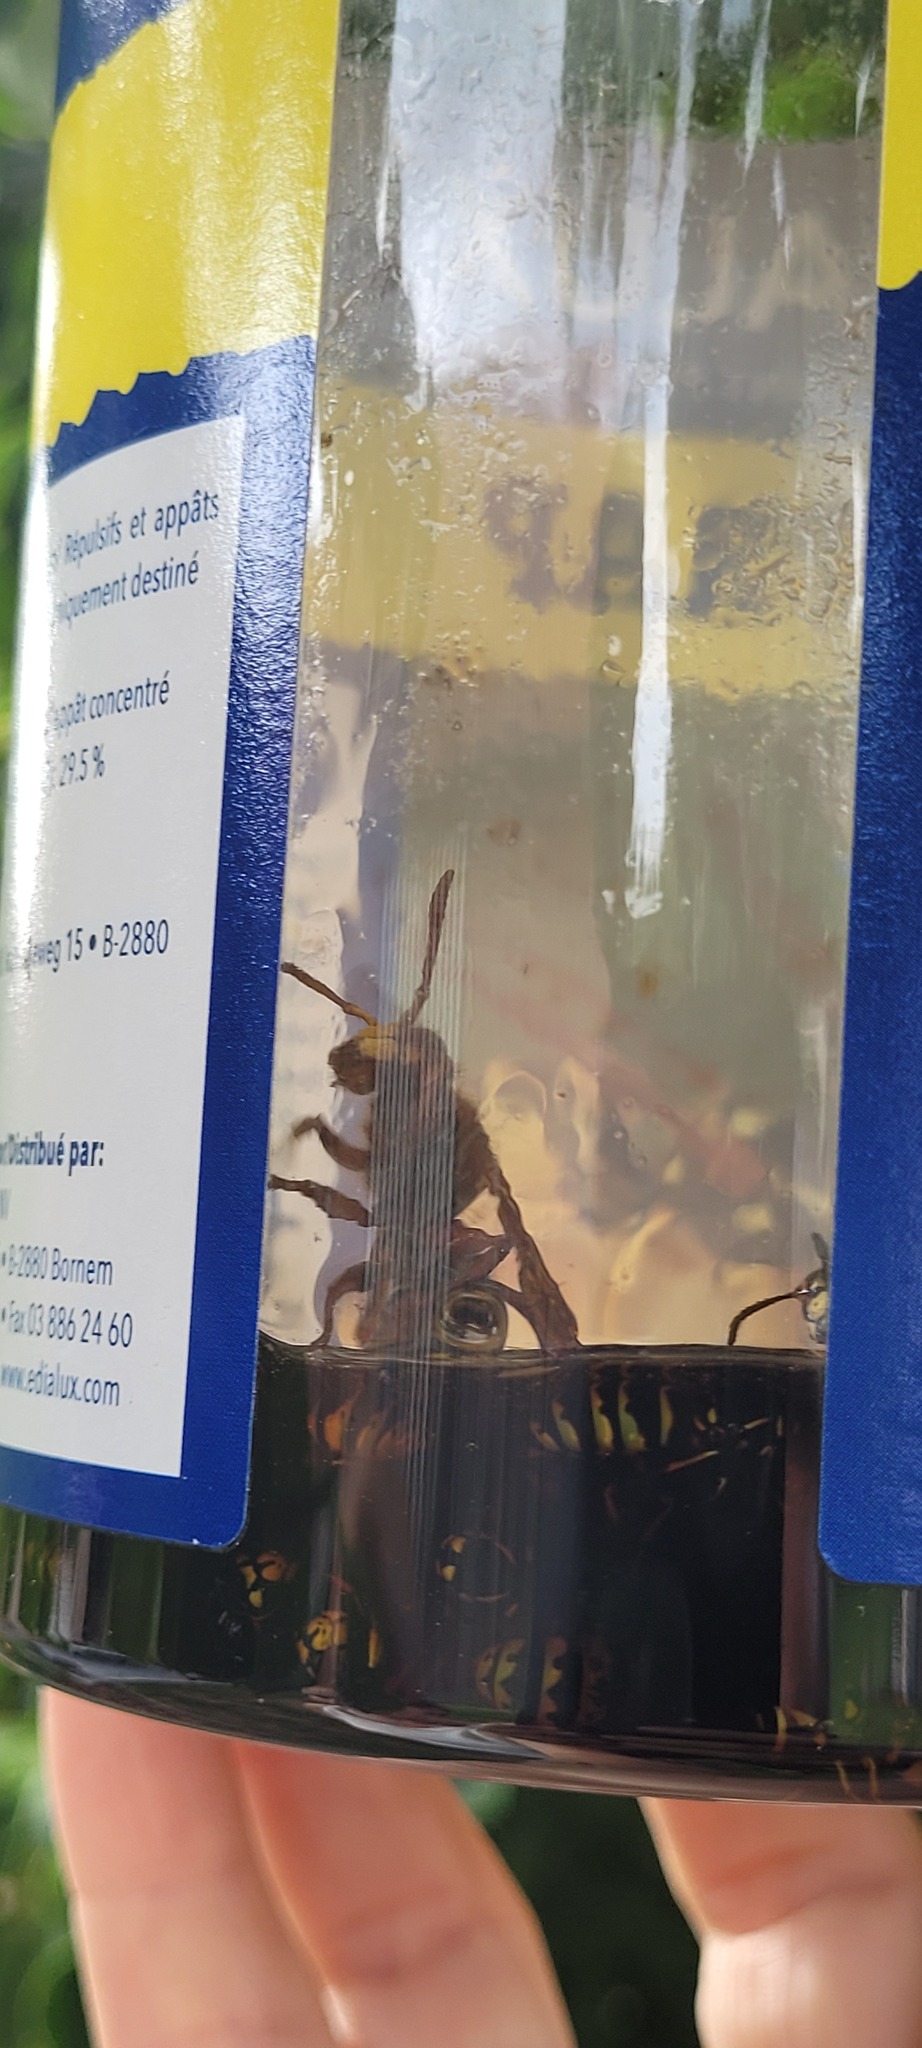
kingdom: Animalia
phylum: Arthropoda
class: Insecta
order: Hymenoptera
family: Vespidae
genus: Vespa
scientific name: Vespa crabro
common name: Hornet
